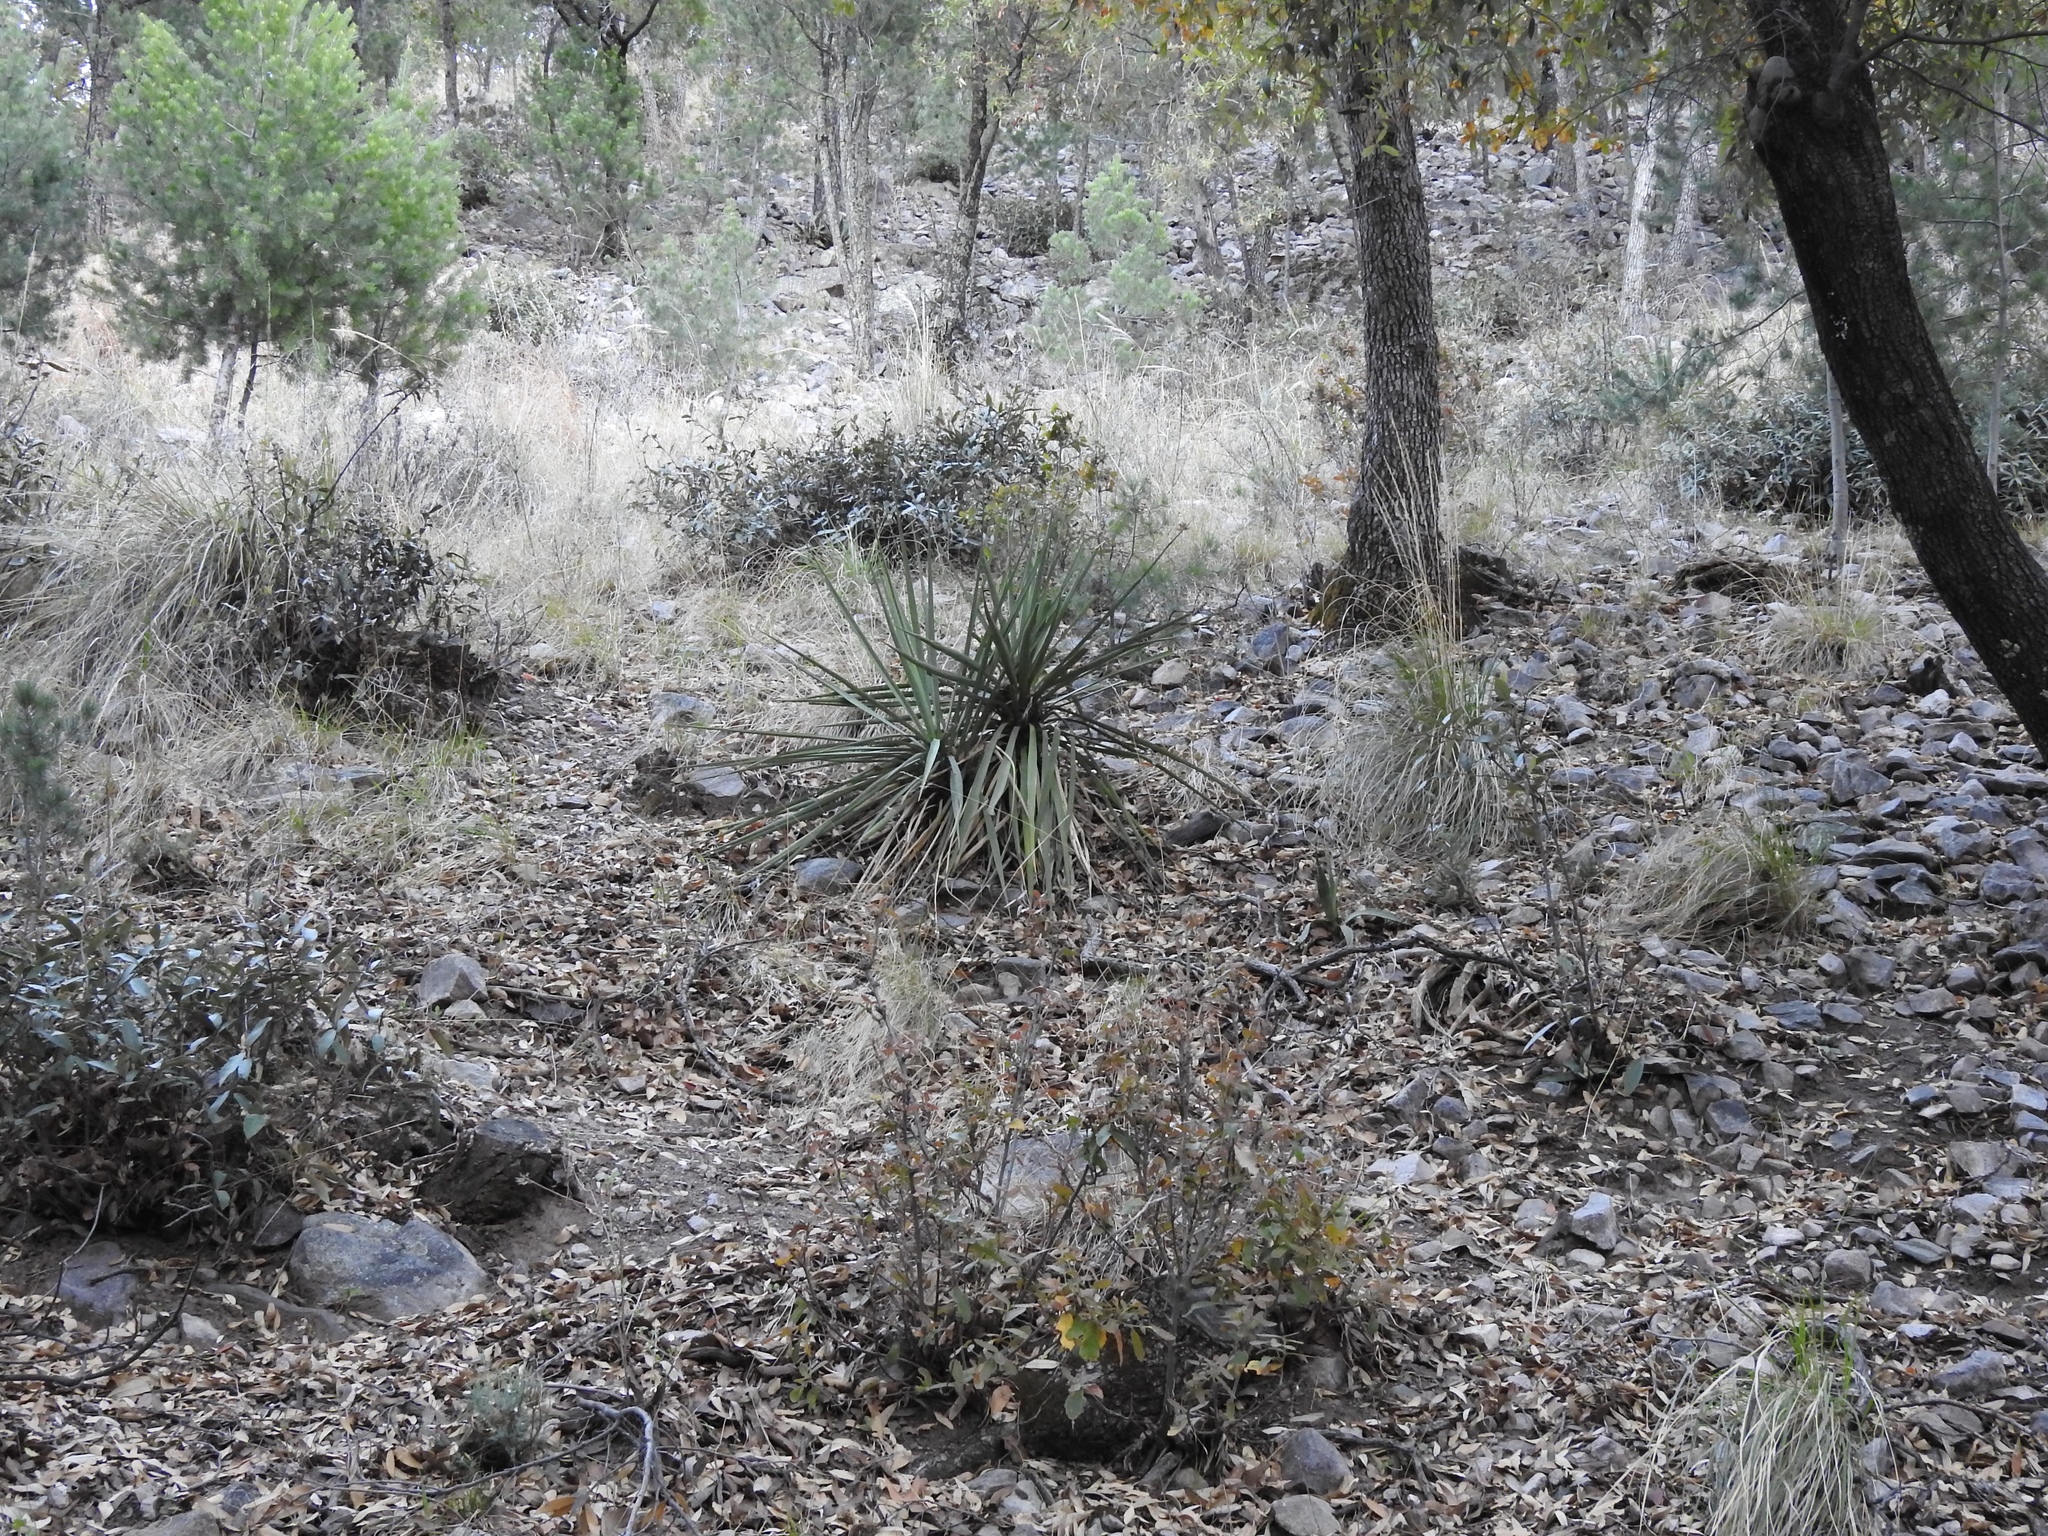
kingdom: Plantae
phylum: Tracheophyta
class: Liliopsida
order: Asparagales
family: Asparagaceae
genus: Yucca
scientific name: Yucca madrensis
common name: Hoary yucca
